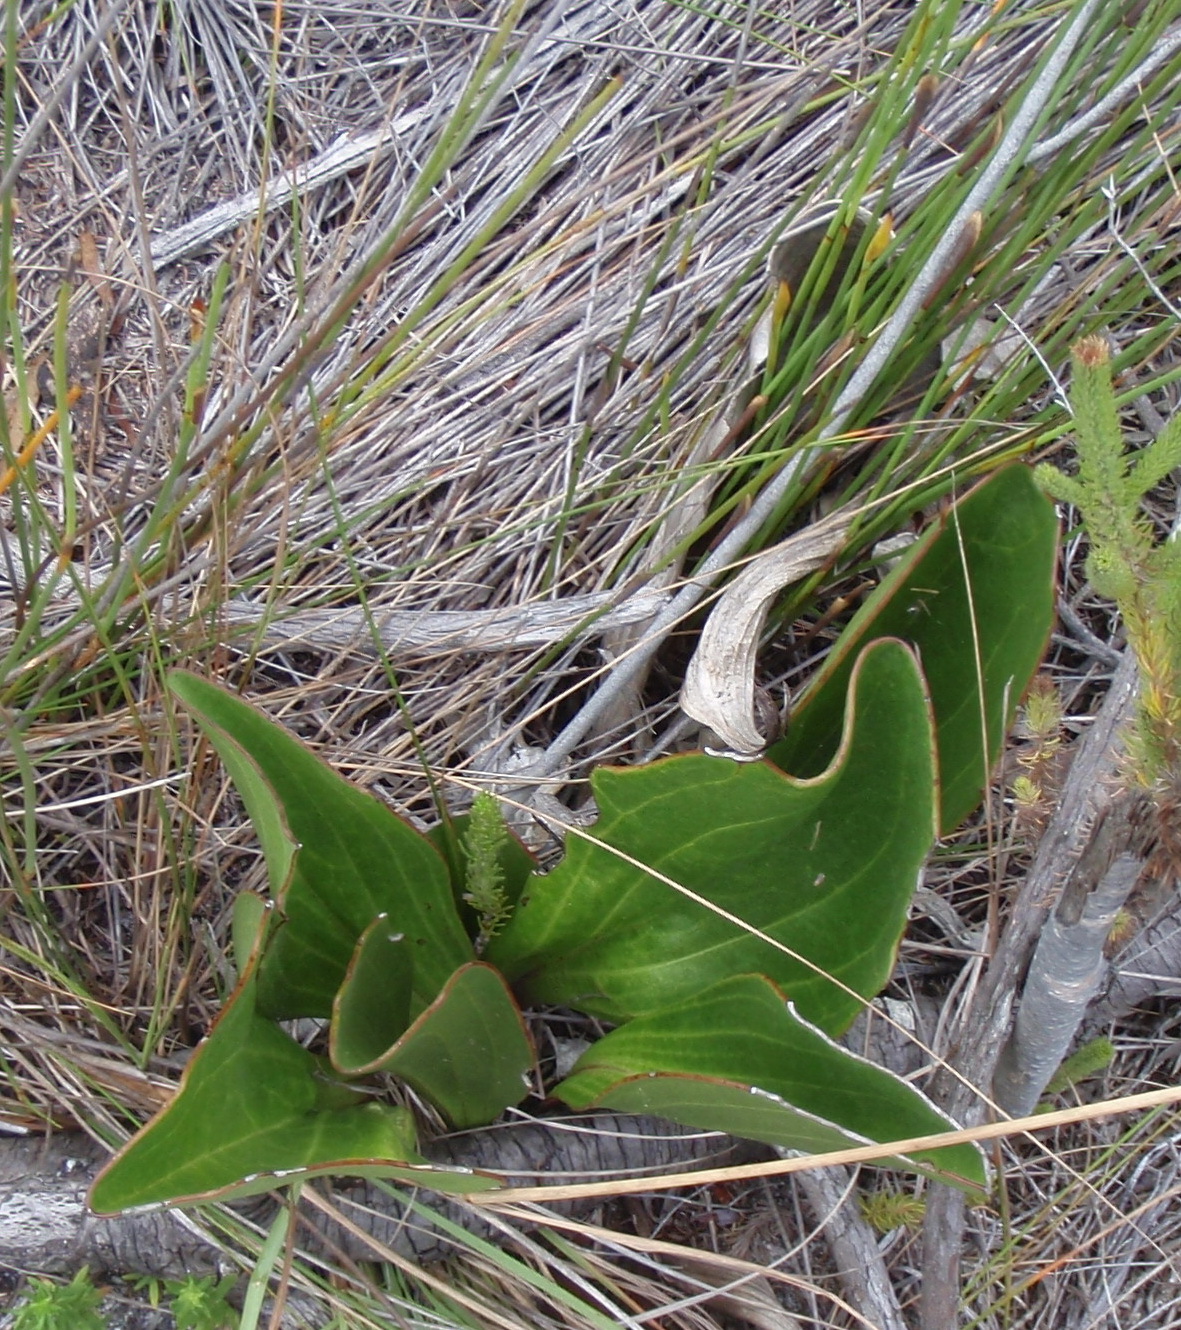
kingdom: Plantae
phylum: Tracheophyta
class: Magnoliopsida
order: Asterales
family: Asteraceae
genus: Mairia
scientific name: Mairia coriacea
